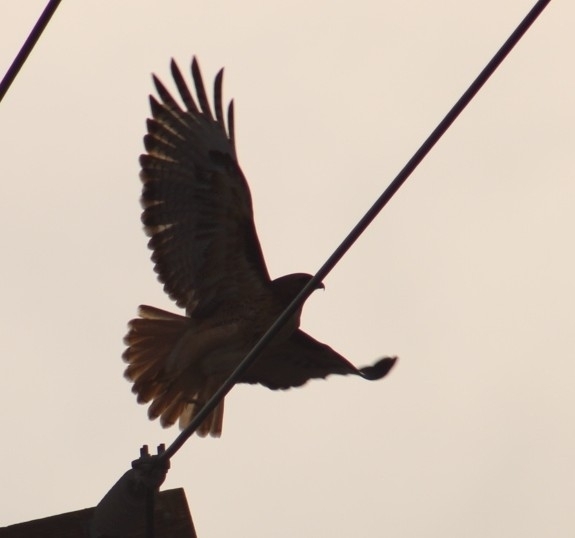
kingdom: Animalia
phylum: Chordata
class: Aves
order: Accipitriformes
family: Accipitridae
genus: Buteo
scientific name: Buteo jamaicensis
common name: Red-tailed hawk
